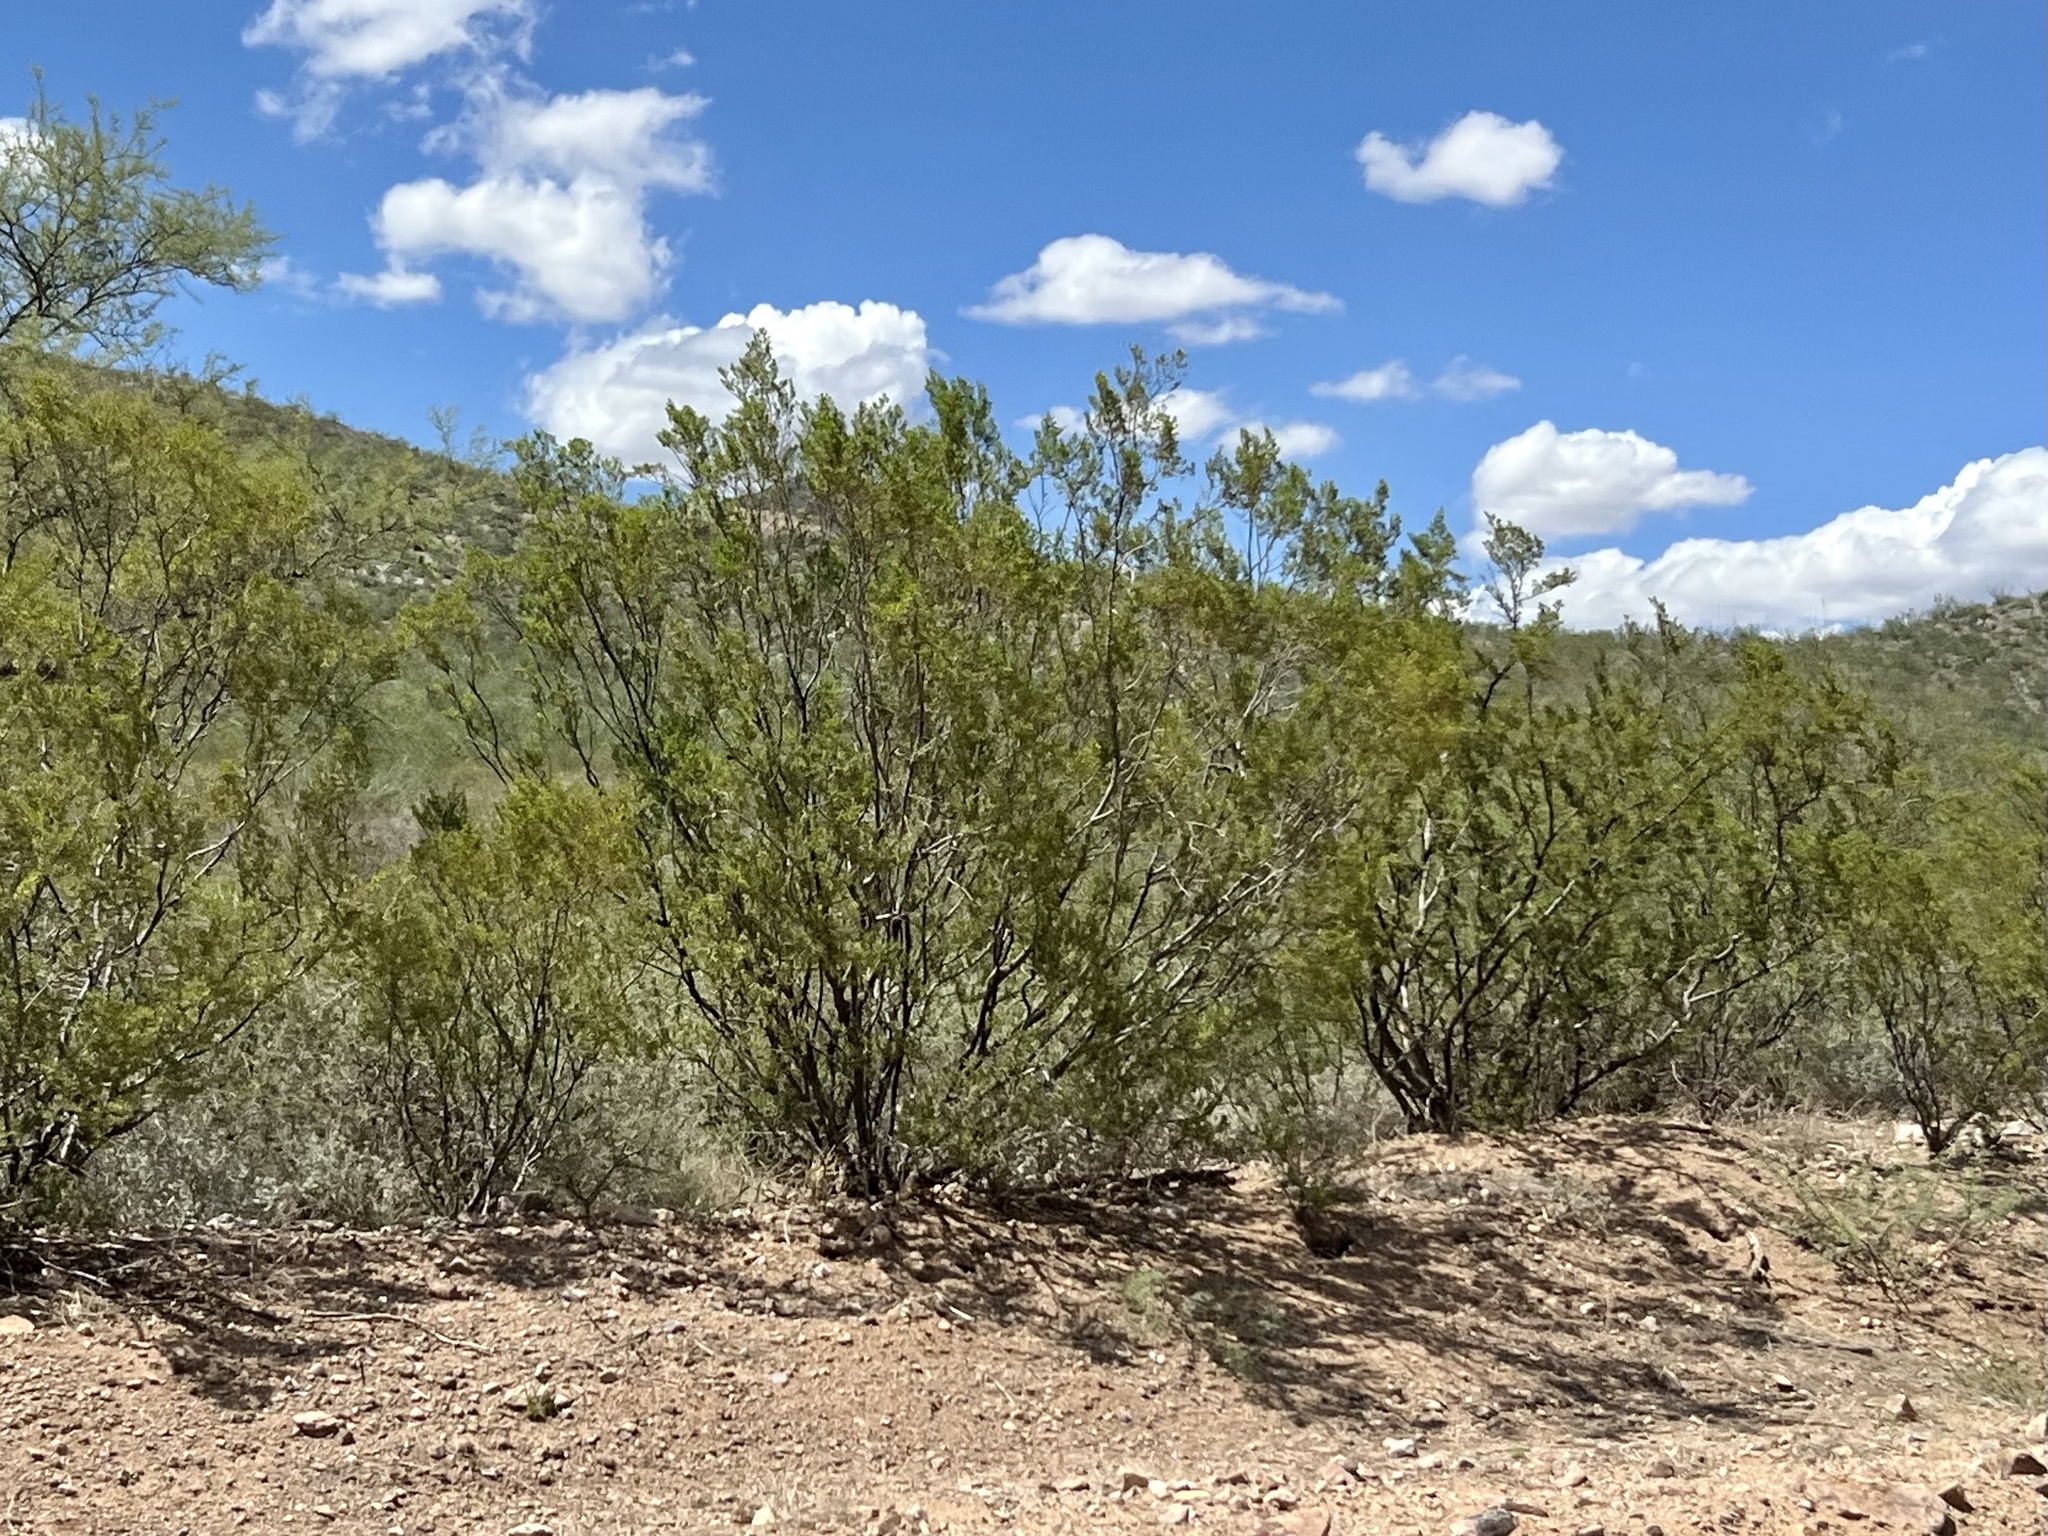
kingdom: Plantae
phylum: Tracheophyta
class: Magnoliopsida
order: Zygophyllales
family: Zygophyllaceae
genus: Larrea
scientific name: Larrea tridentata
